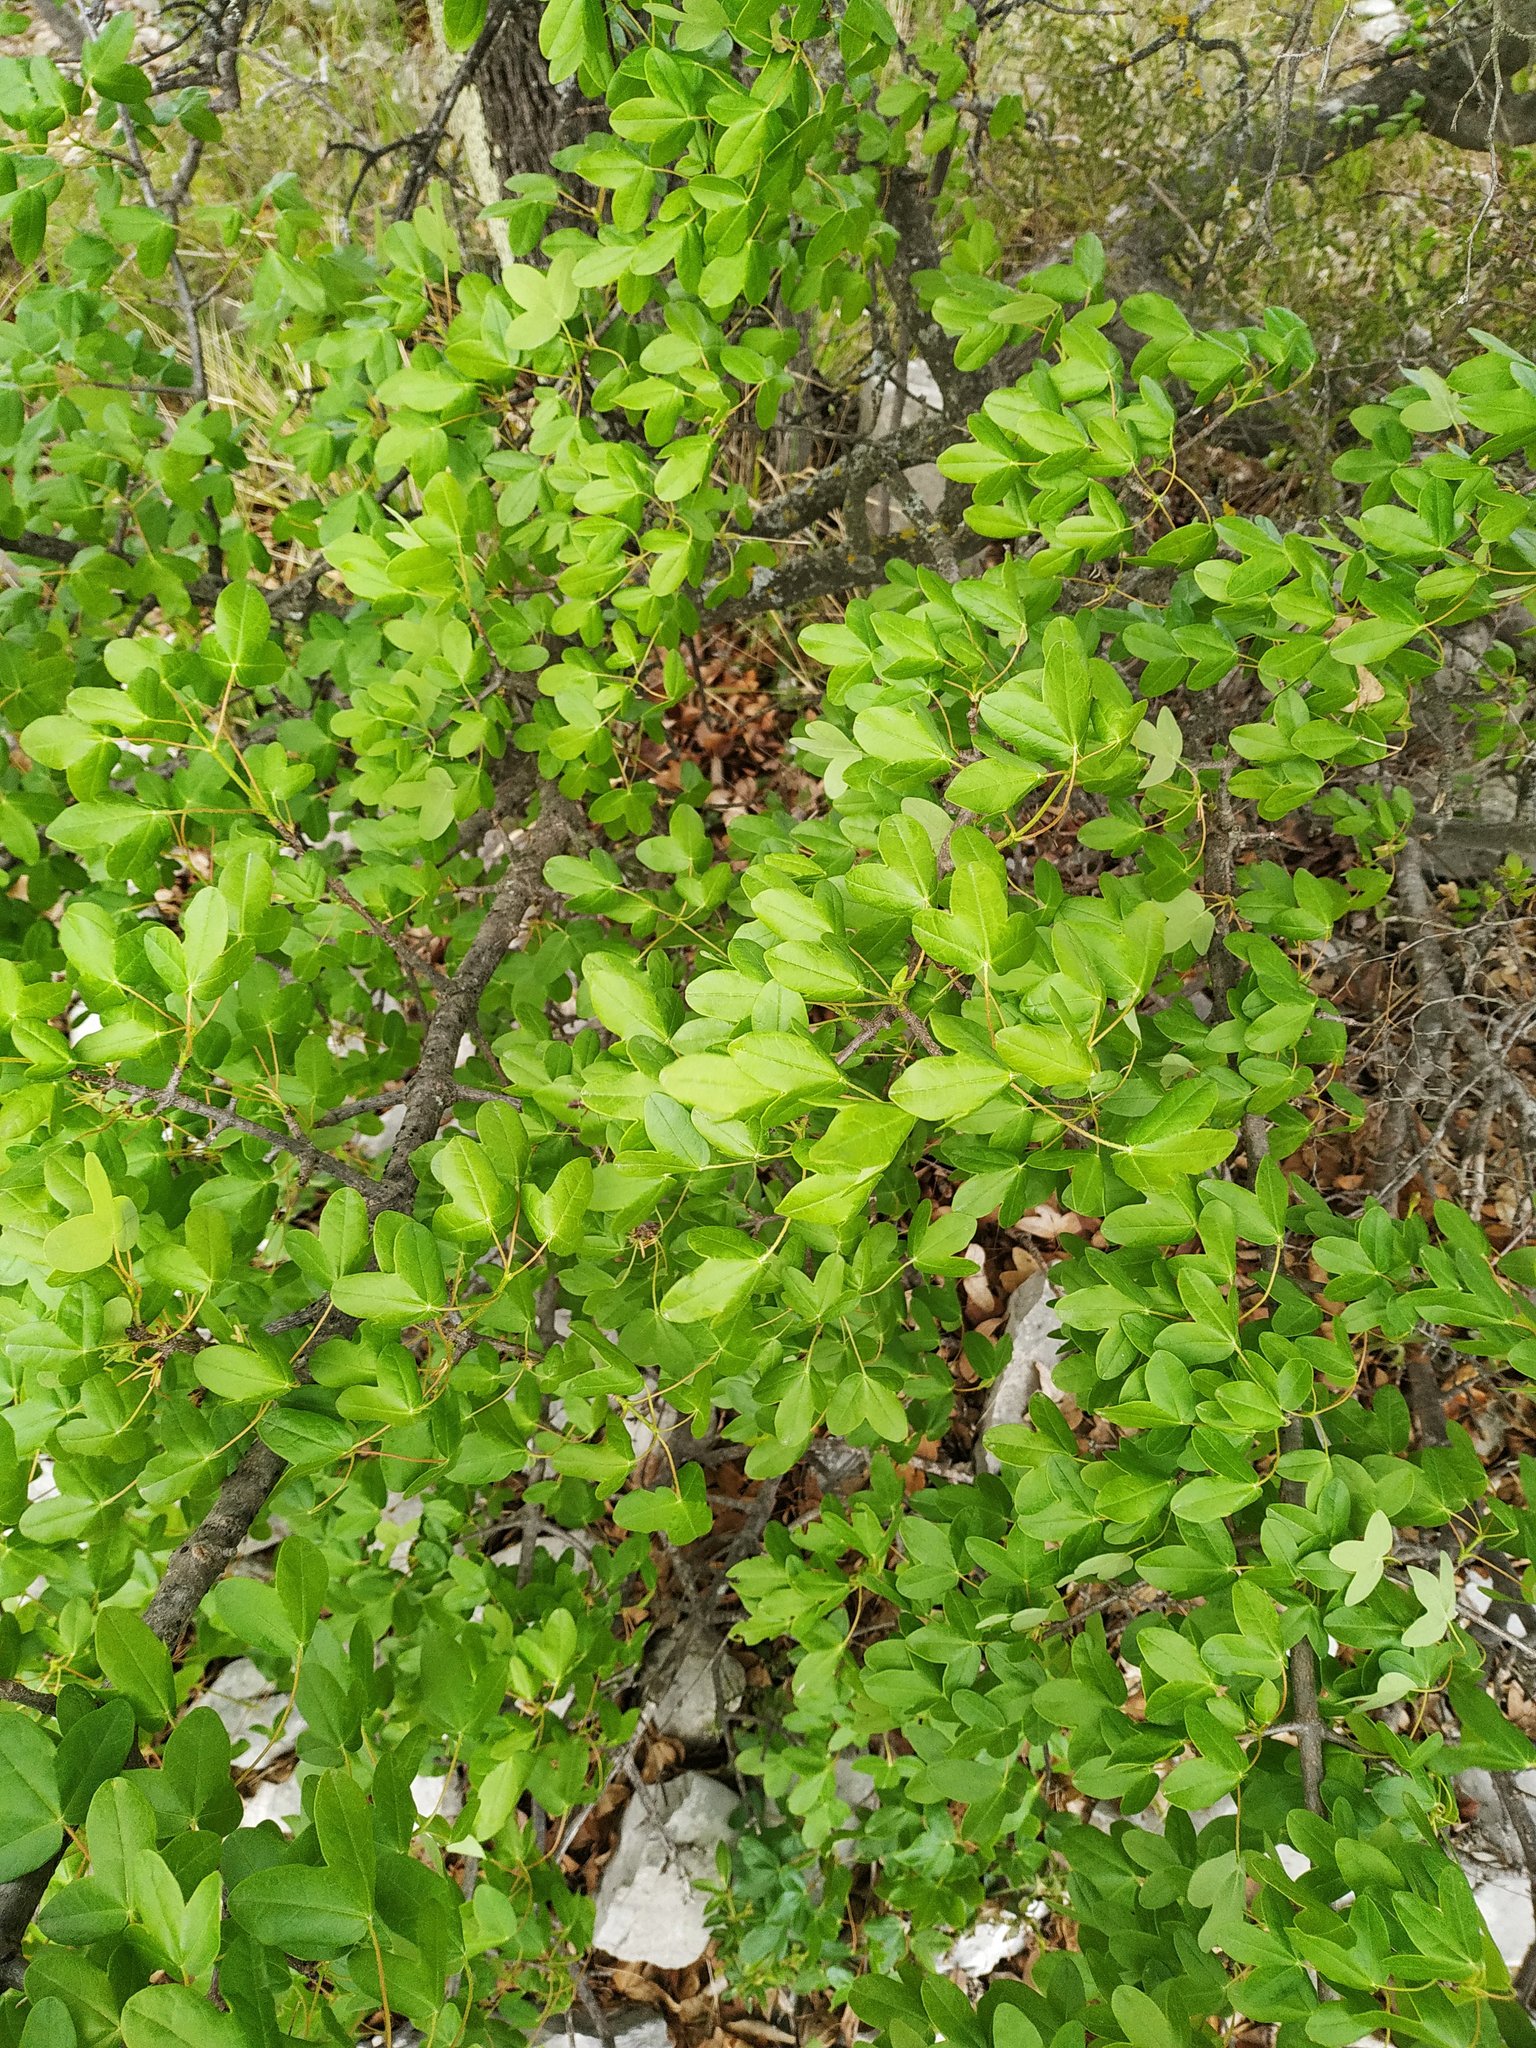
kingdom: Plantae
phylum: Tracheophyta
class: Magnoliopsida
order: Sapindales
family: Sapindaceae
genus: Acer
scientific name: Acer monspessulanum
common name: Montpellier maple
